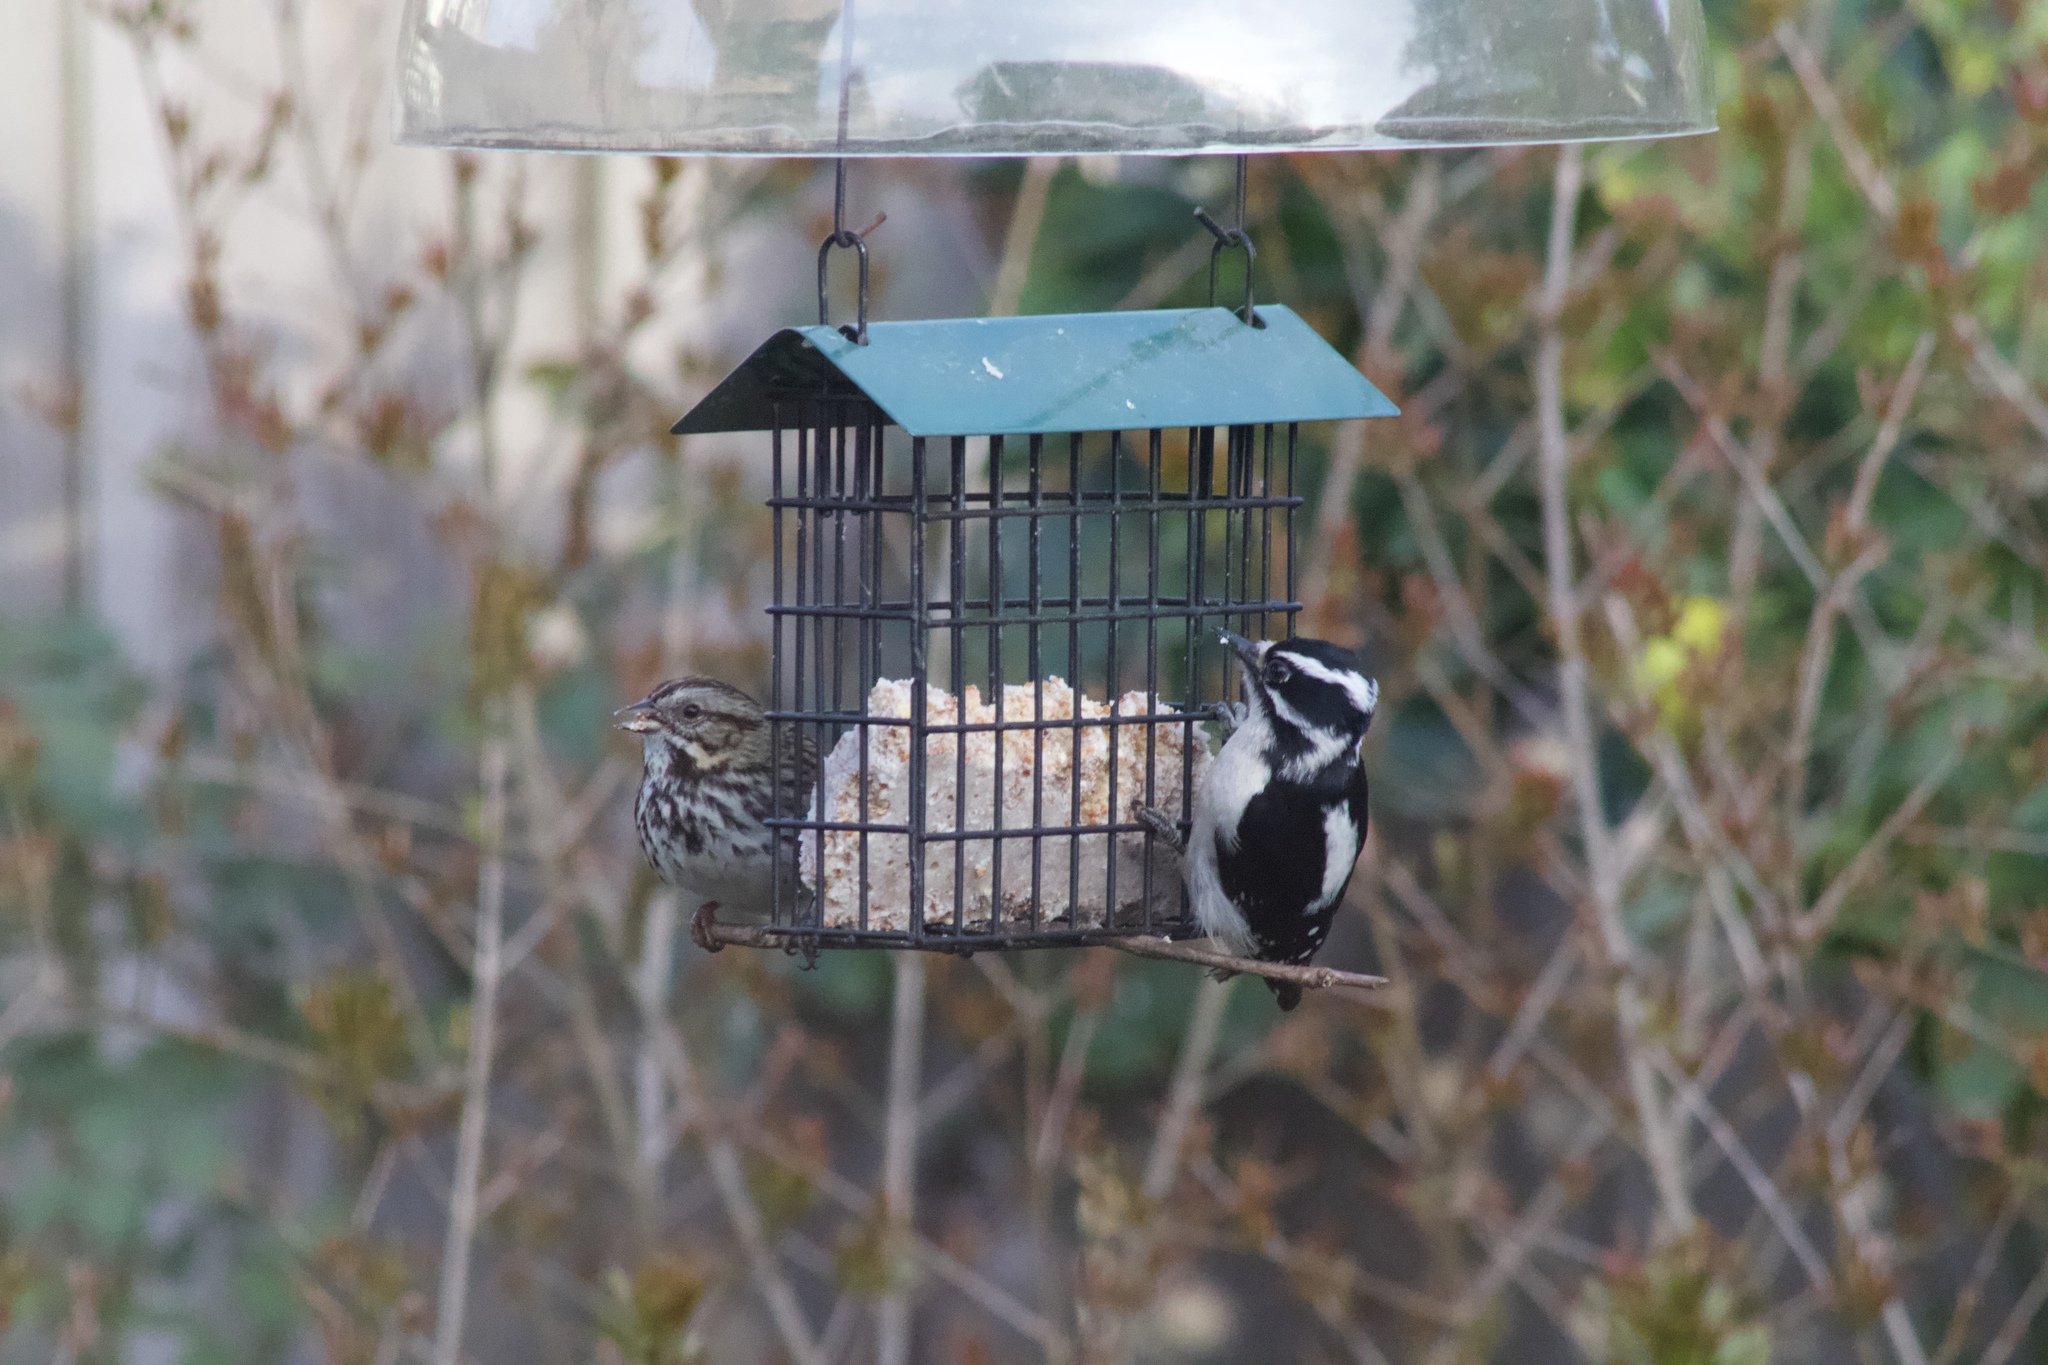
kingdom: Animalia
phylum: Chordata
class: Aves
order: Piciformes
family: Picidae
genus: Dryobates
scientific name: Dryobates pubescens
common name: Downy woodpecker
